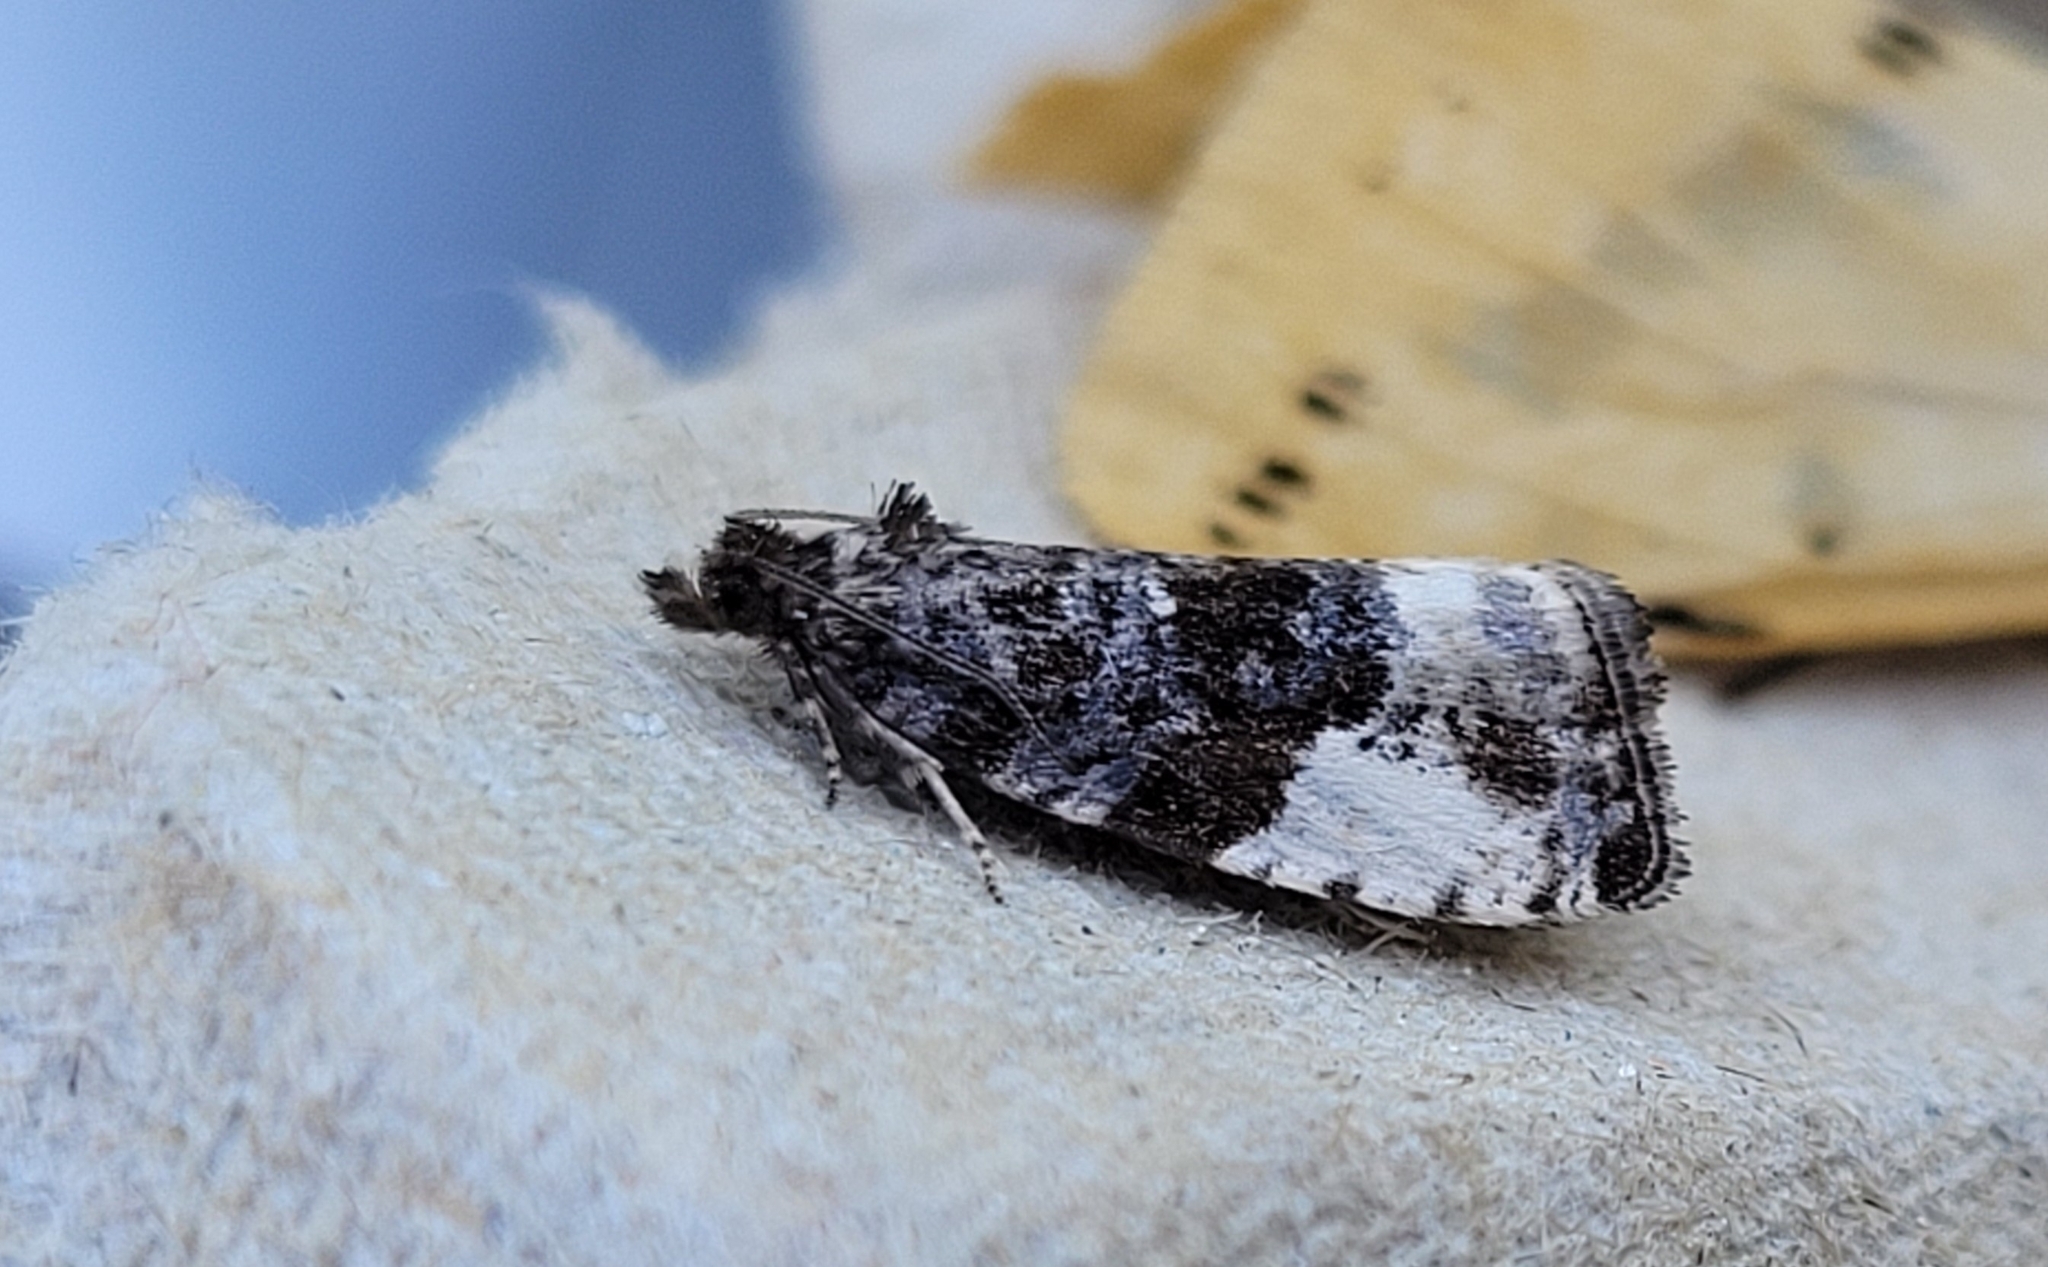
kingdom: Animalia
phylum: Arthropoda
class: Insecta
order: Lepidoptera
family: Tortricidae
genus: Hedya
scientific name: Hedya pruniana
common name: Plum tortrix
